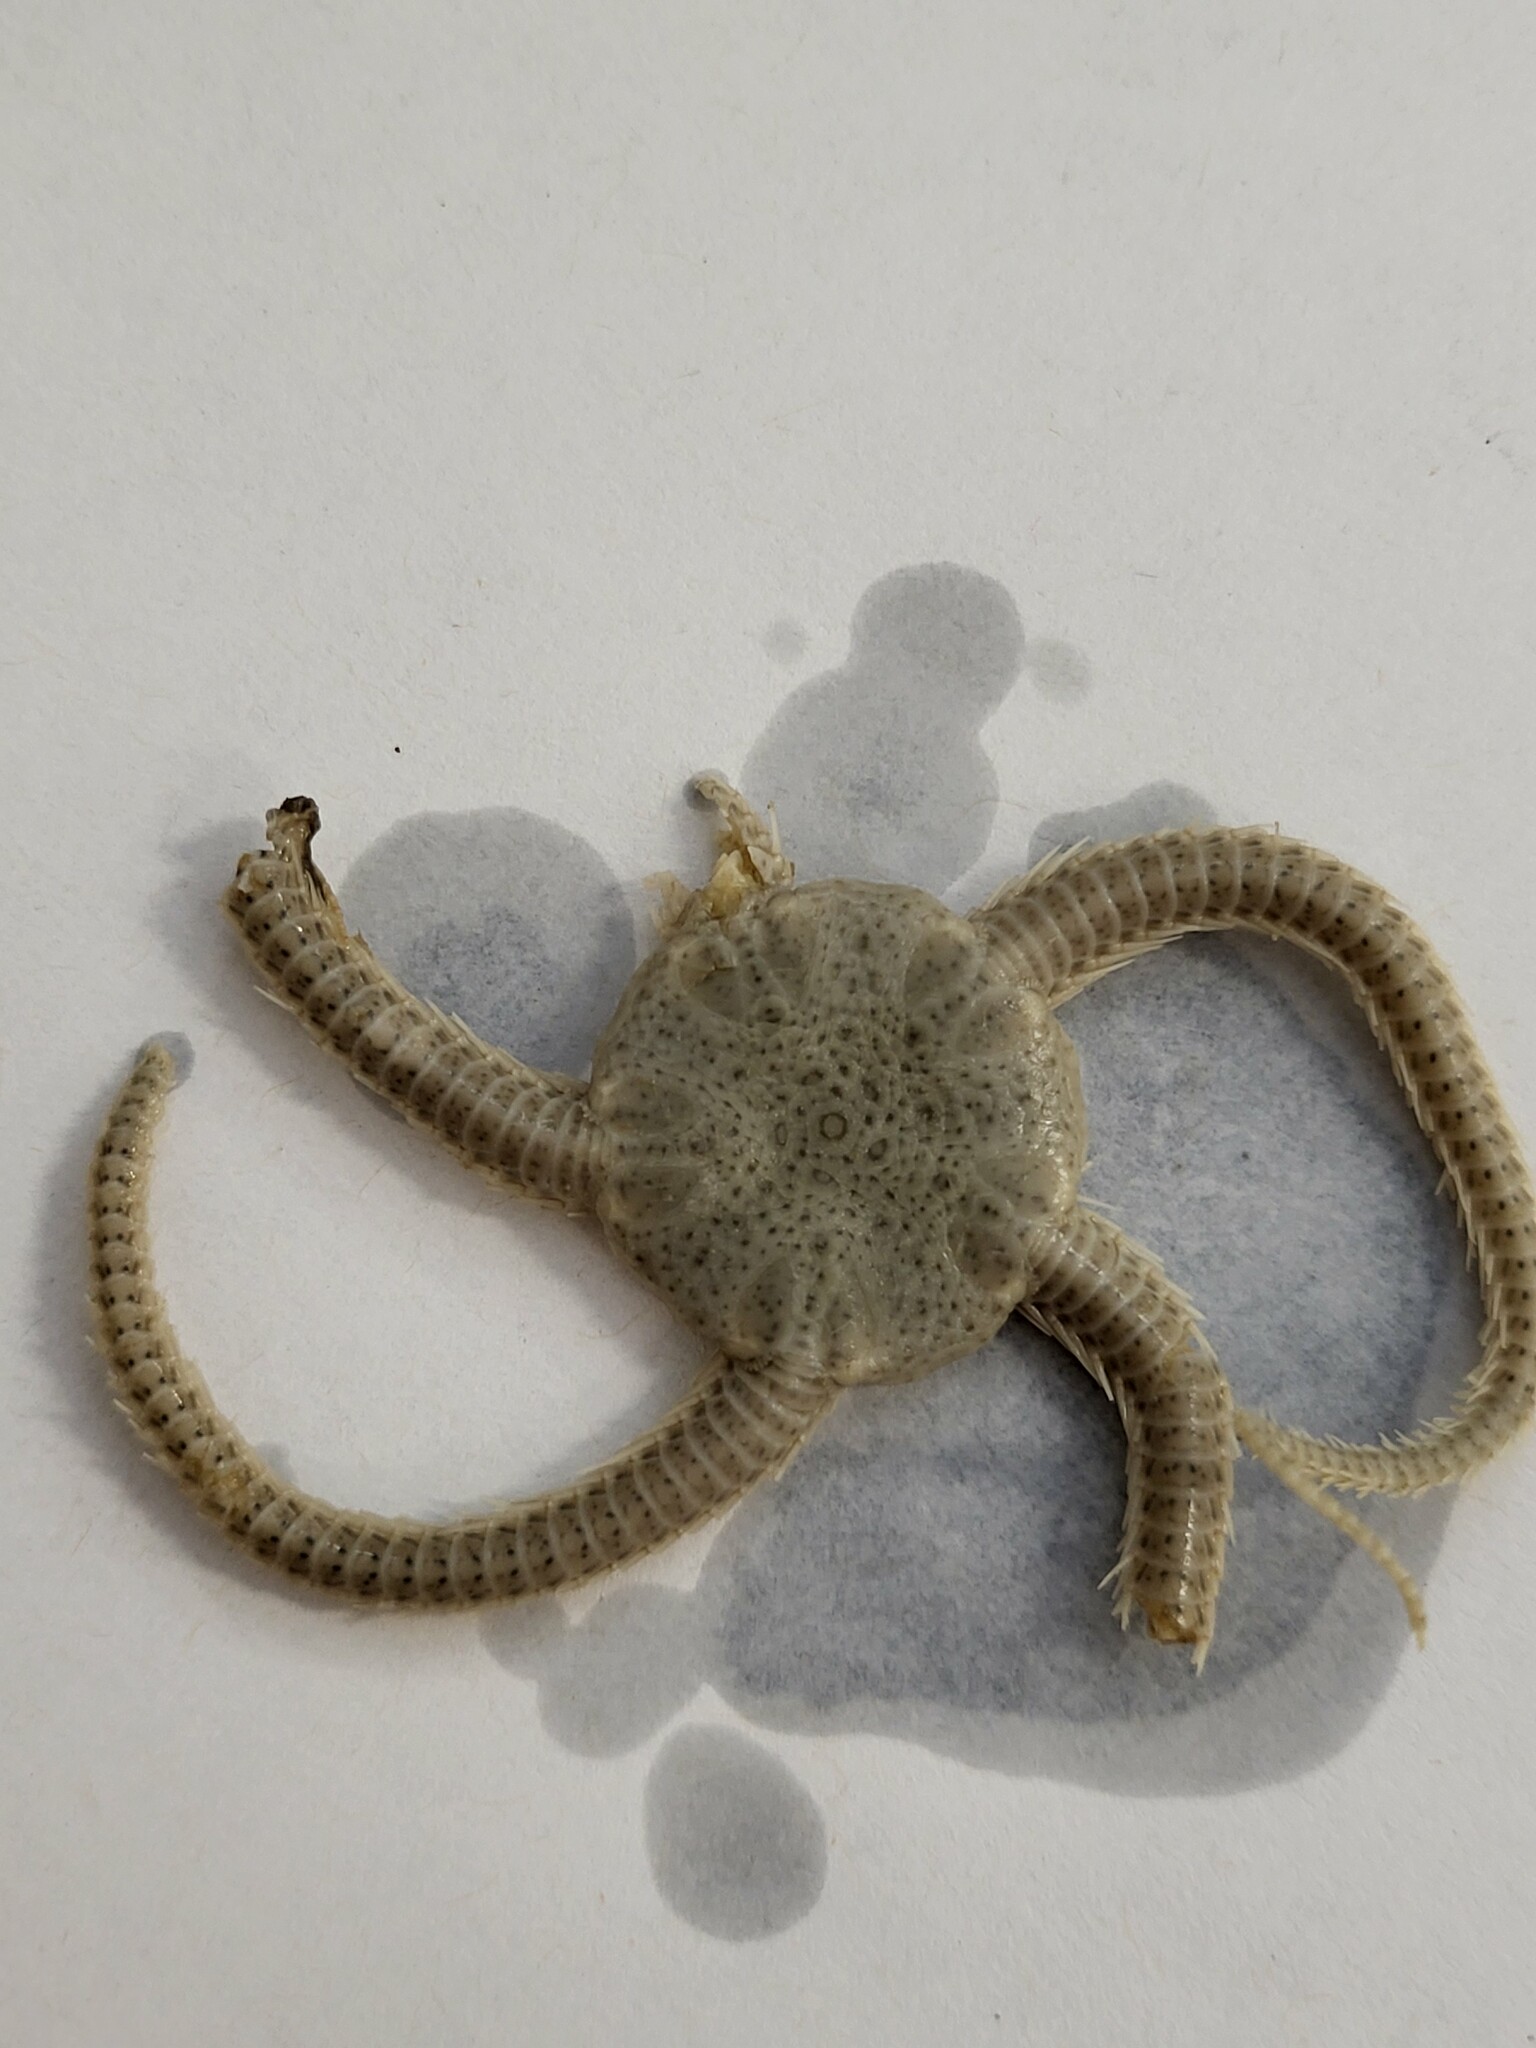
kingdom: Animalia
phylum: Echinodermata
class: Ophiuroidea
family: Ophiuridae
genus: Ophiura
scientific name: Ophiura sarsii
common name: Notched brittle star
